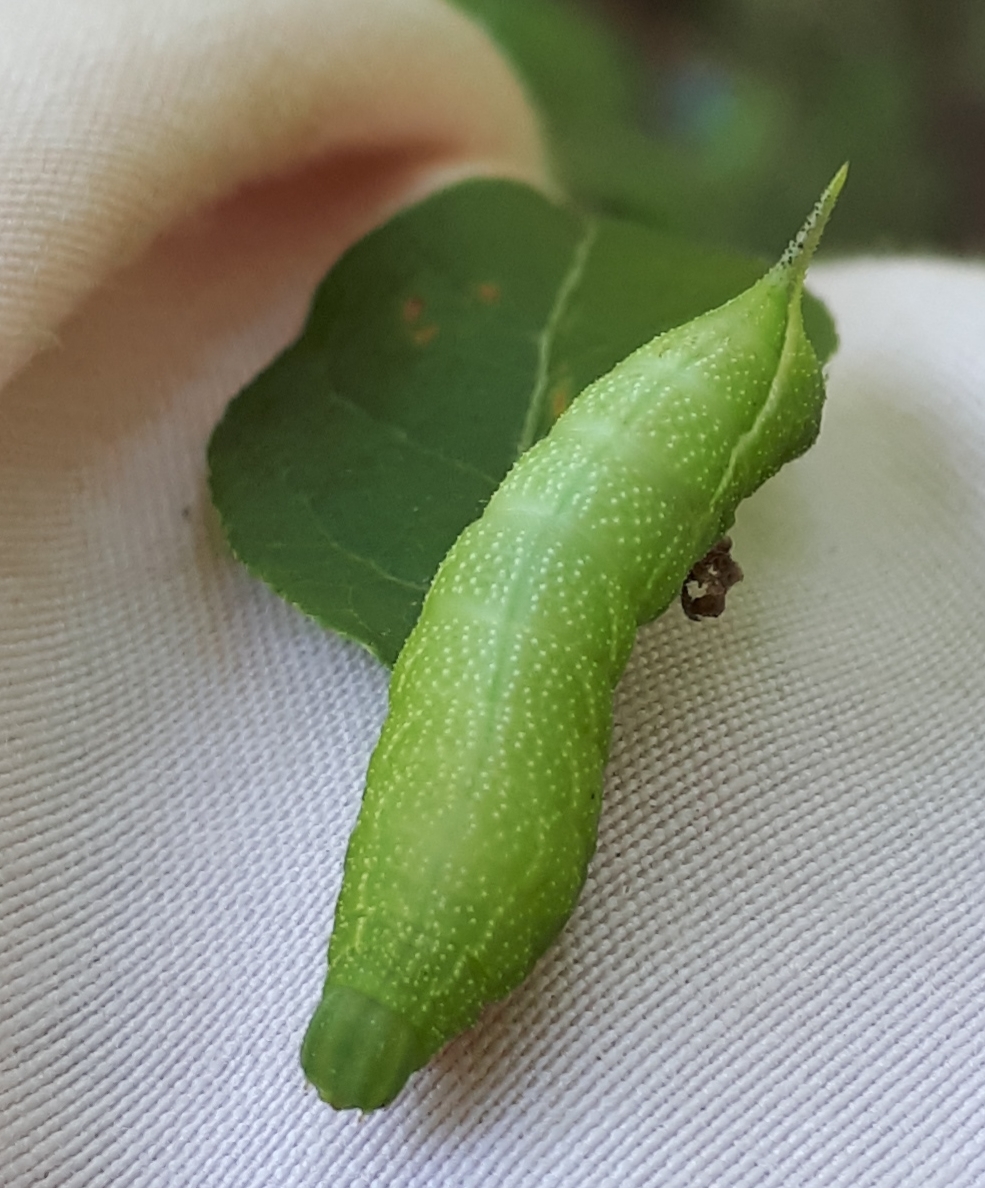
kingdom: Animalia
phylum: Arthropoda
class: Insecta
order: Lepidoptera
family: Sphingidae
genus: Darapsa
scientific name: Darapsa choerilus
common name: Azalea sphinx
